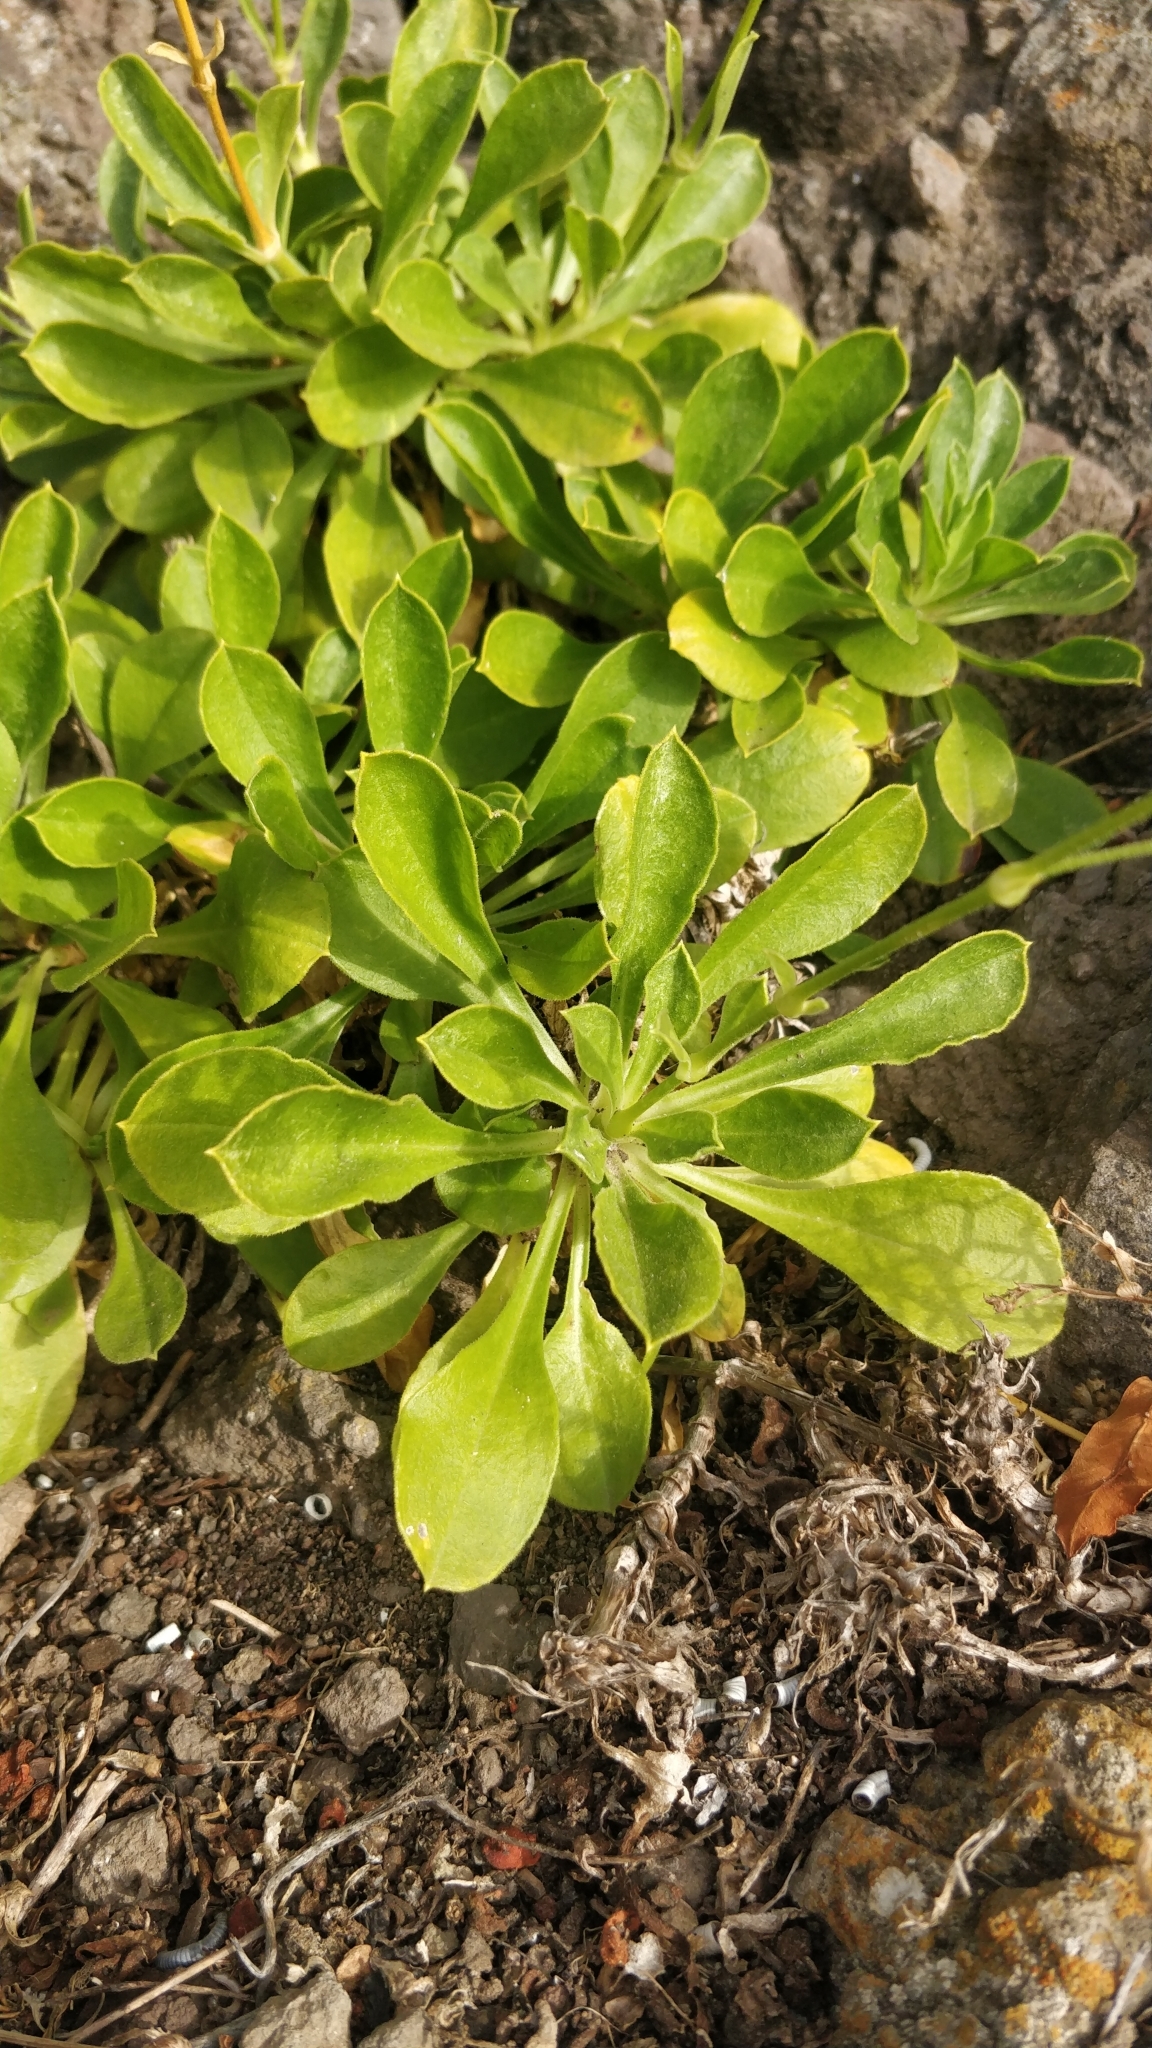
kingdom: Plantae
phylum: Tracheophyta
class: Magnoliopsida
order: Caryophyllales
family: Caryophyllaceae
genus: Silene
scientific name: Silene lagunensis
